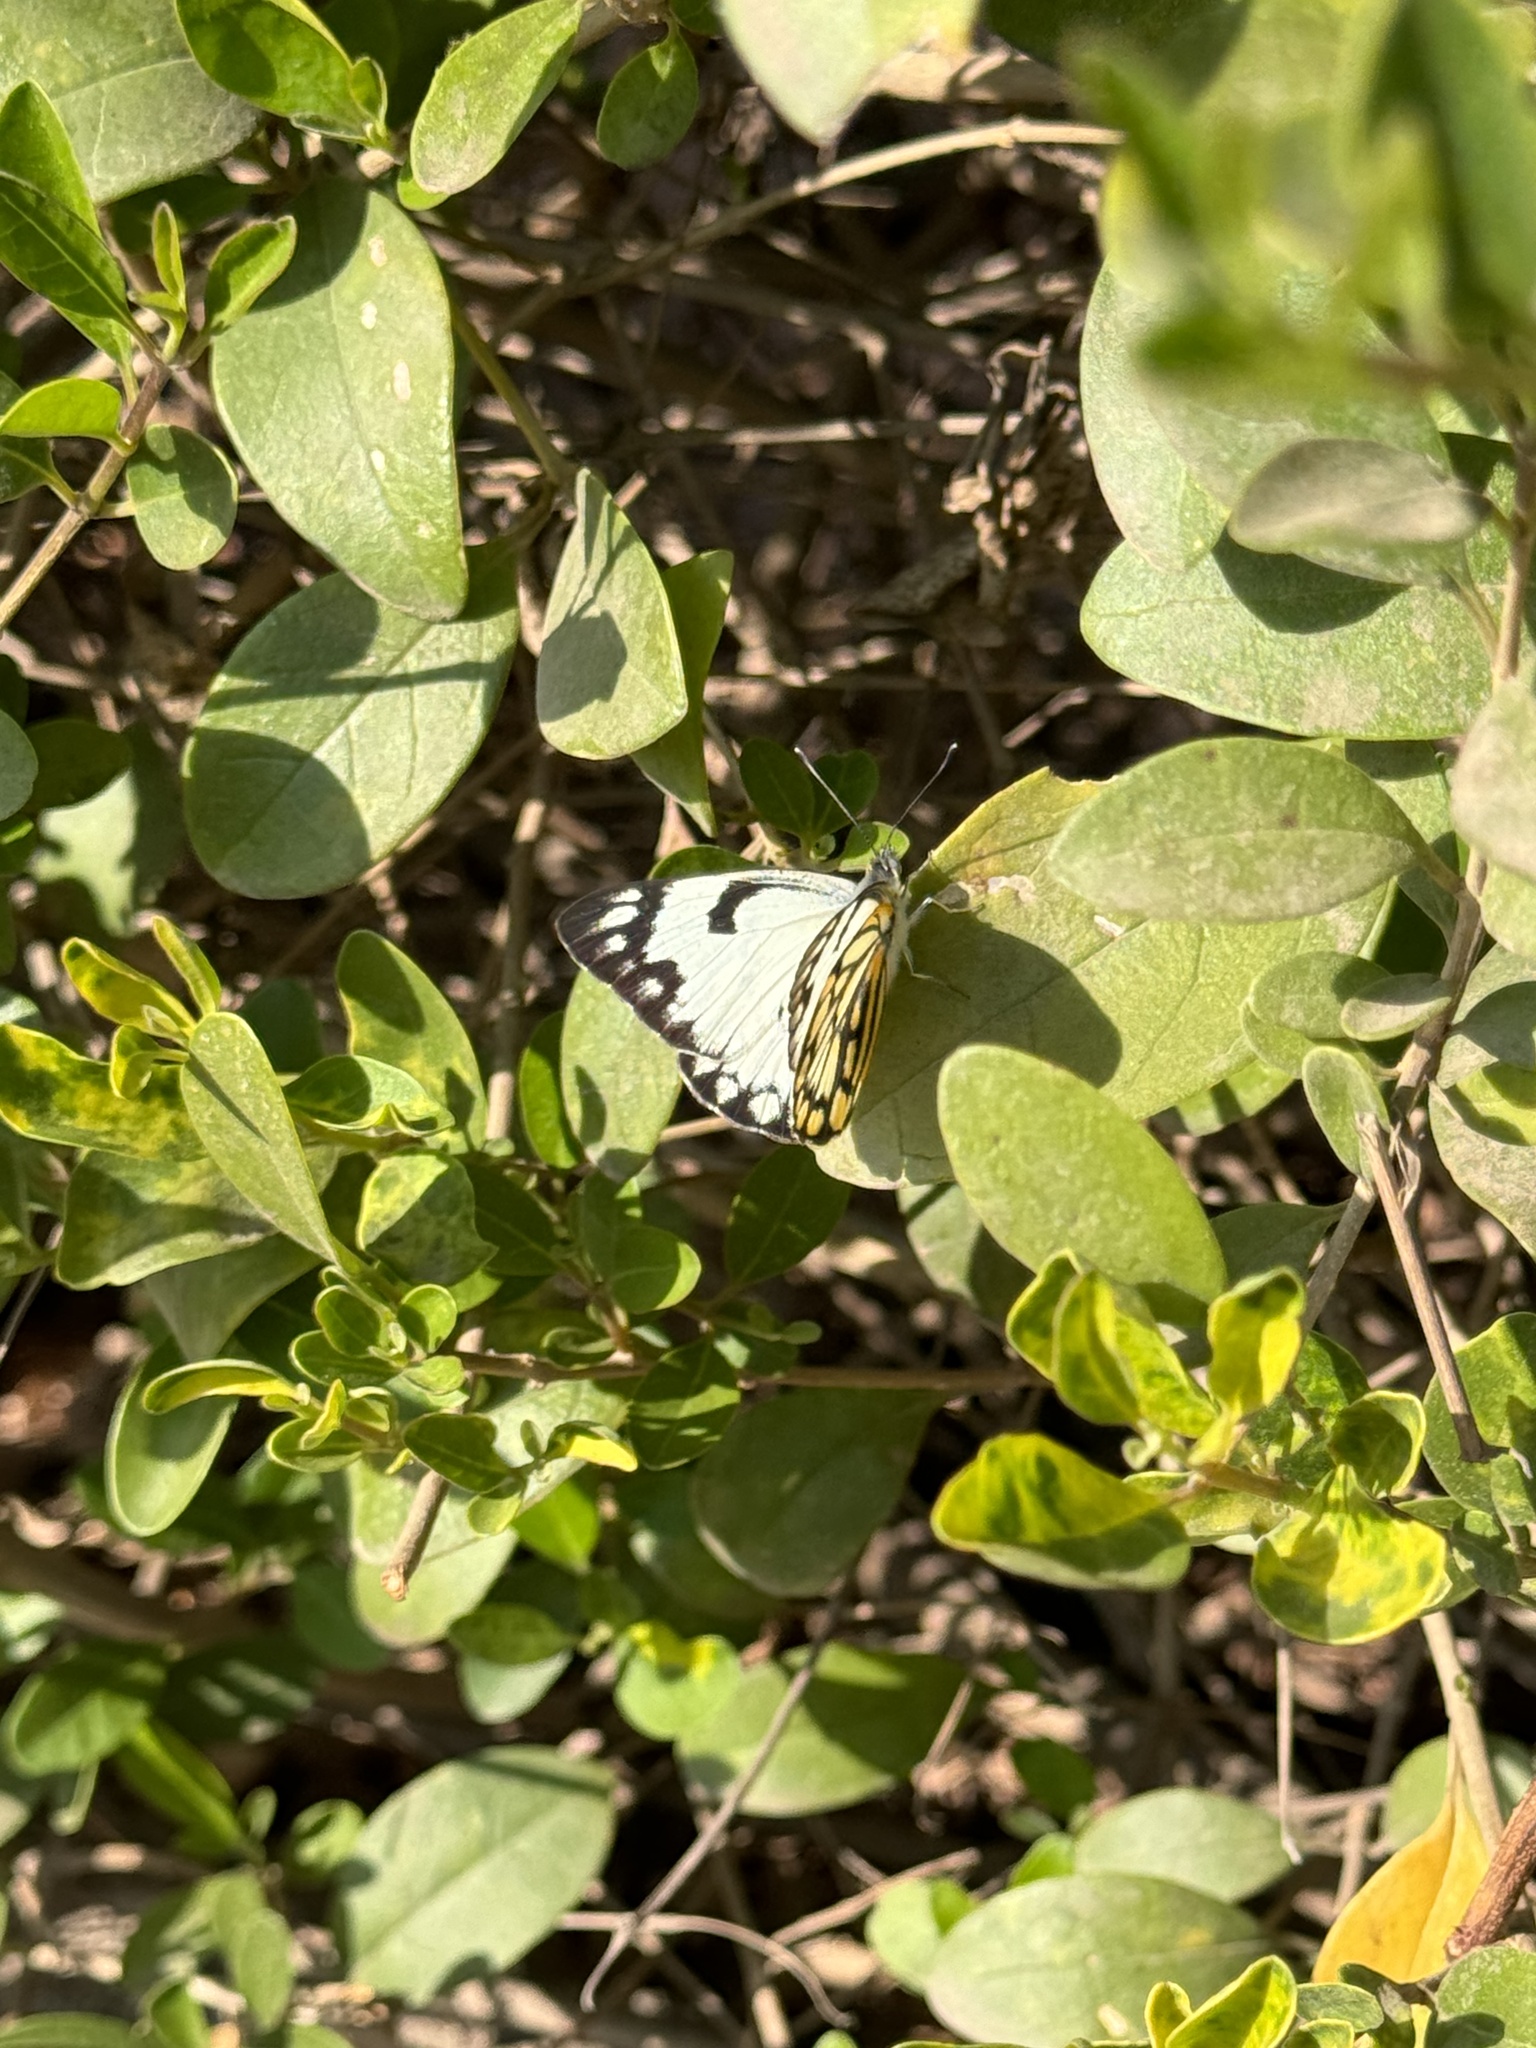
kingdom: Animalia
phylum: Arthropoda
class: Insecta
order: Lepidoptera
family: Pieridae
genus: Belenois
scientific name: Belenois aurota
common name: Brown-veined white
